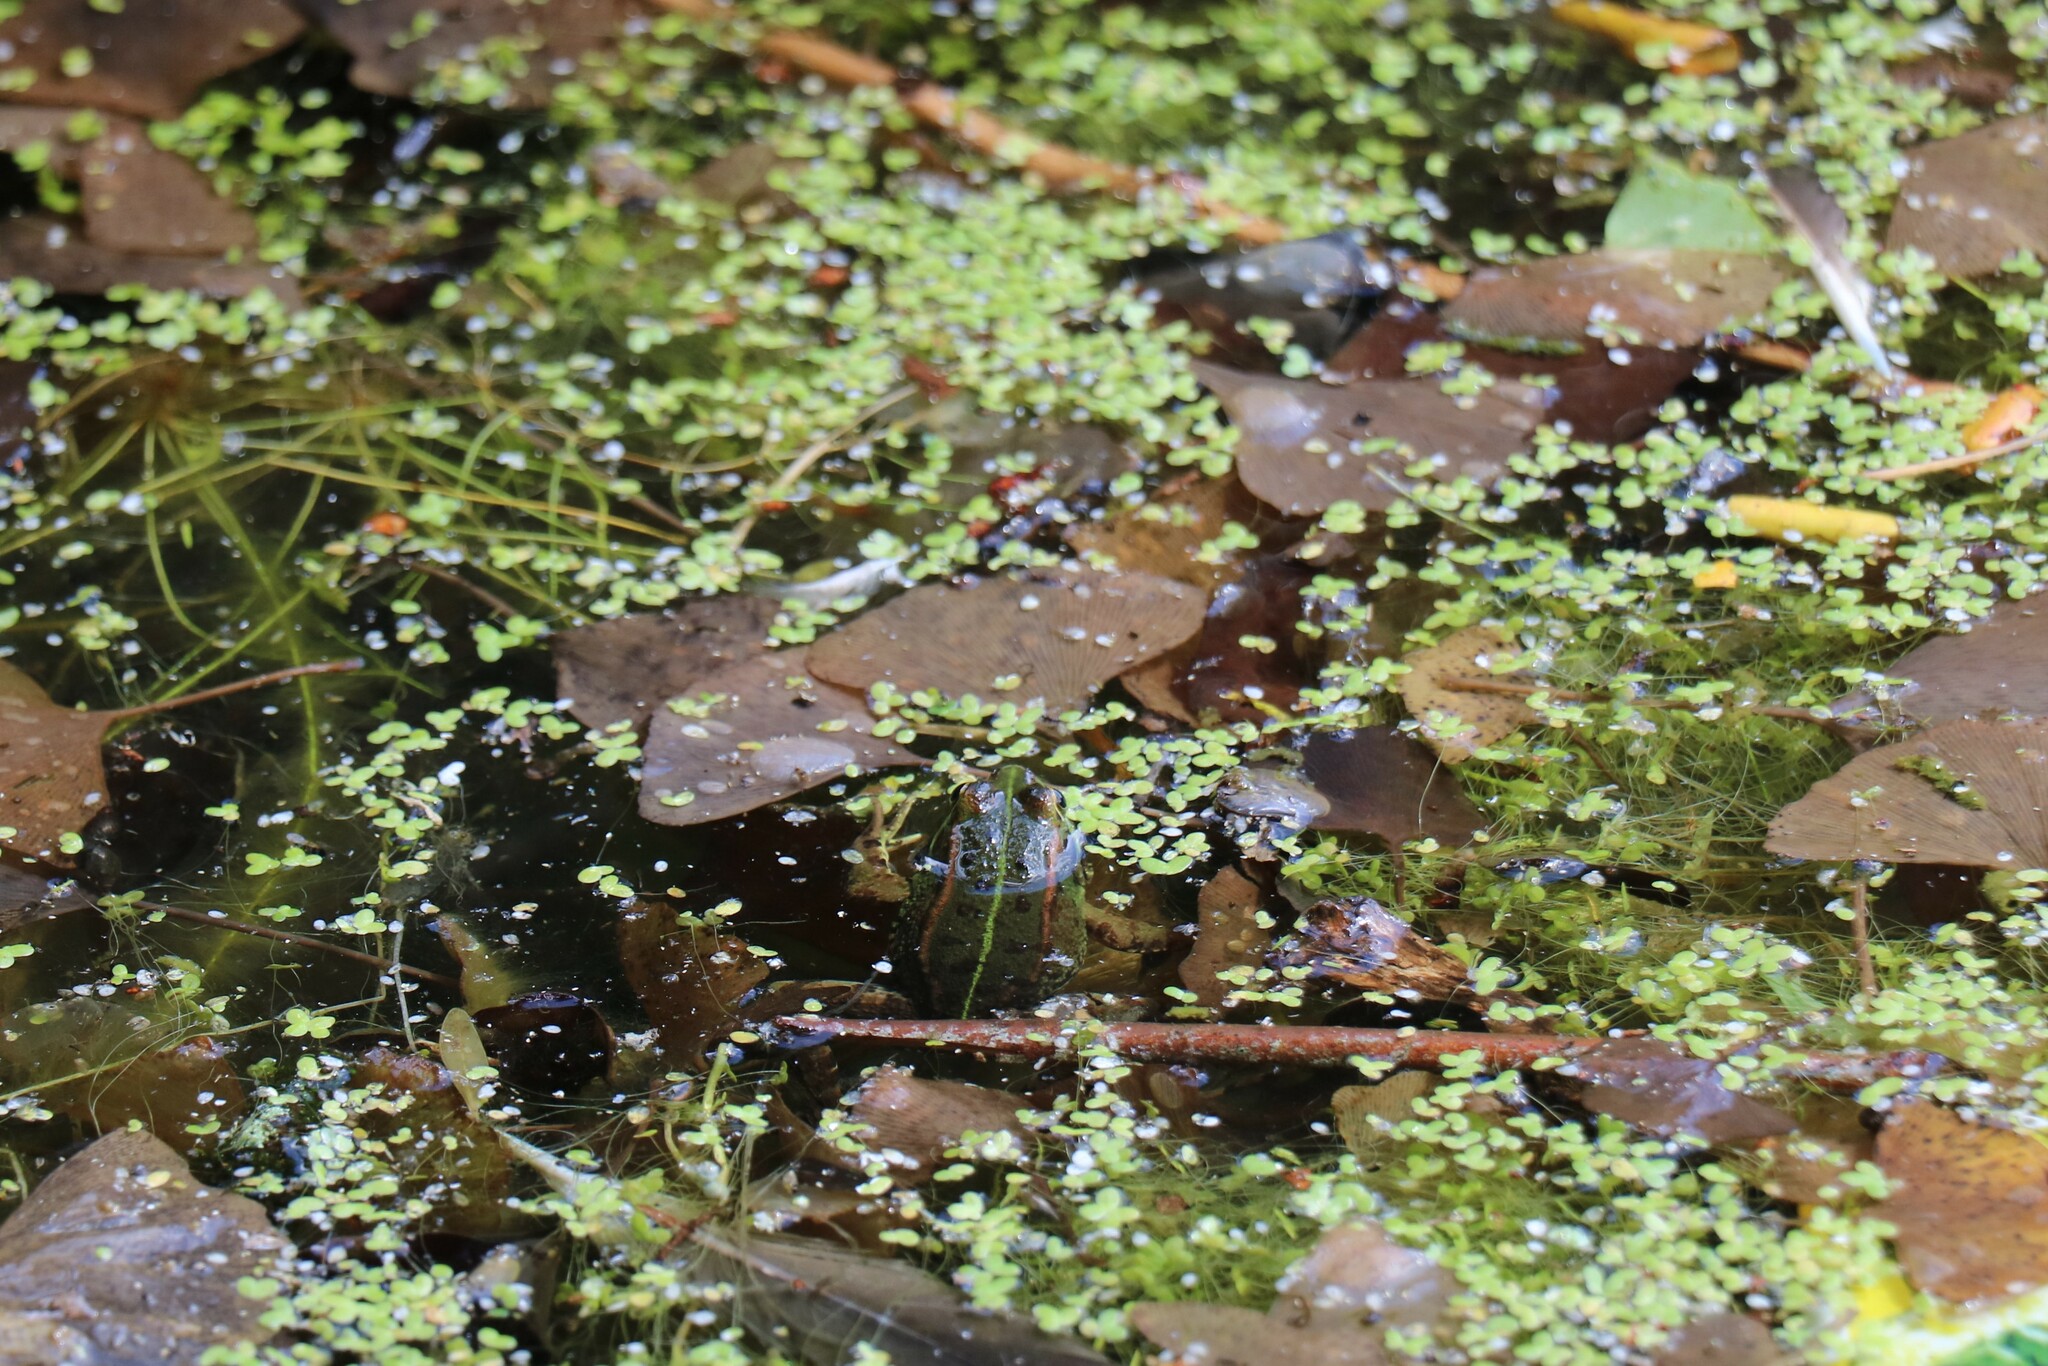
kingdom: Animalia
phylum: Chordata
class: Amphibia
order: Anura
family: Ranidae
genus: Pelophylax
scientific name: Pelophylax perezi
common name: Perez's frog
